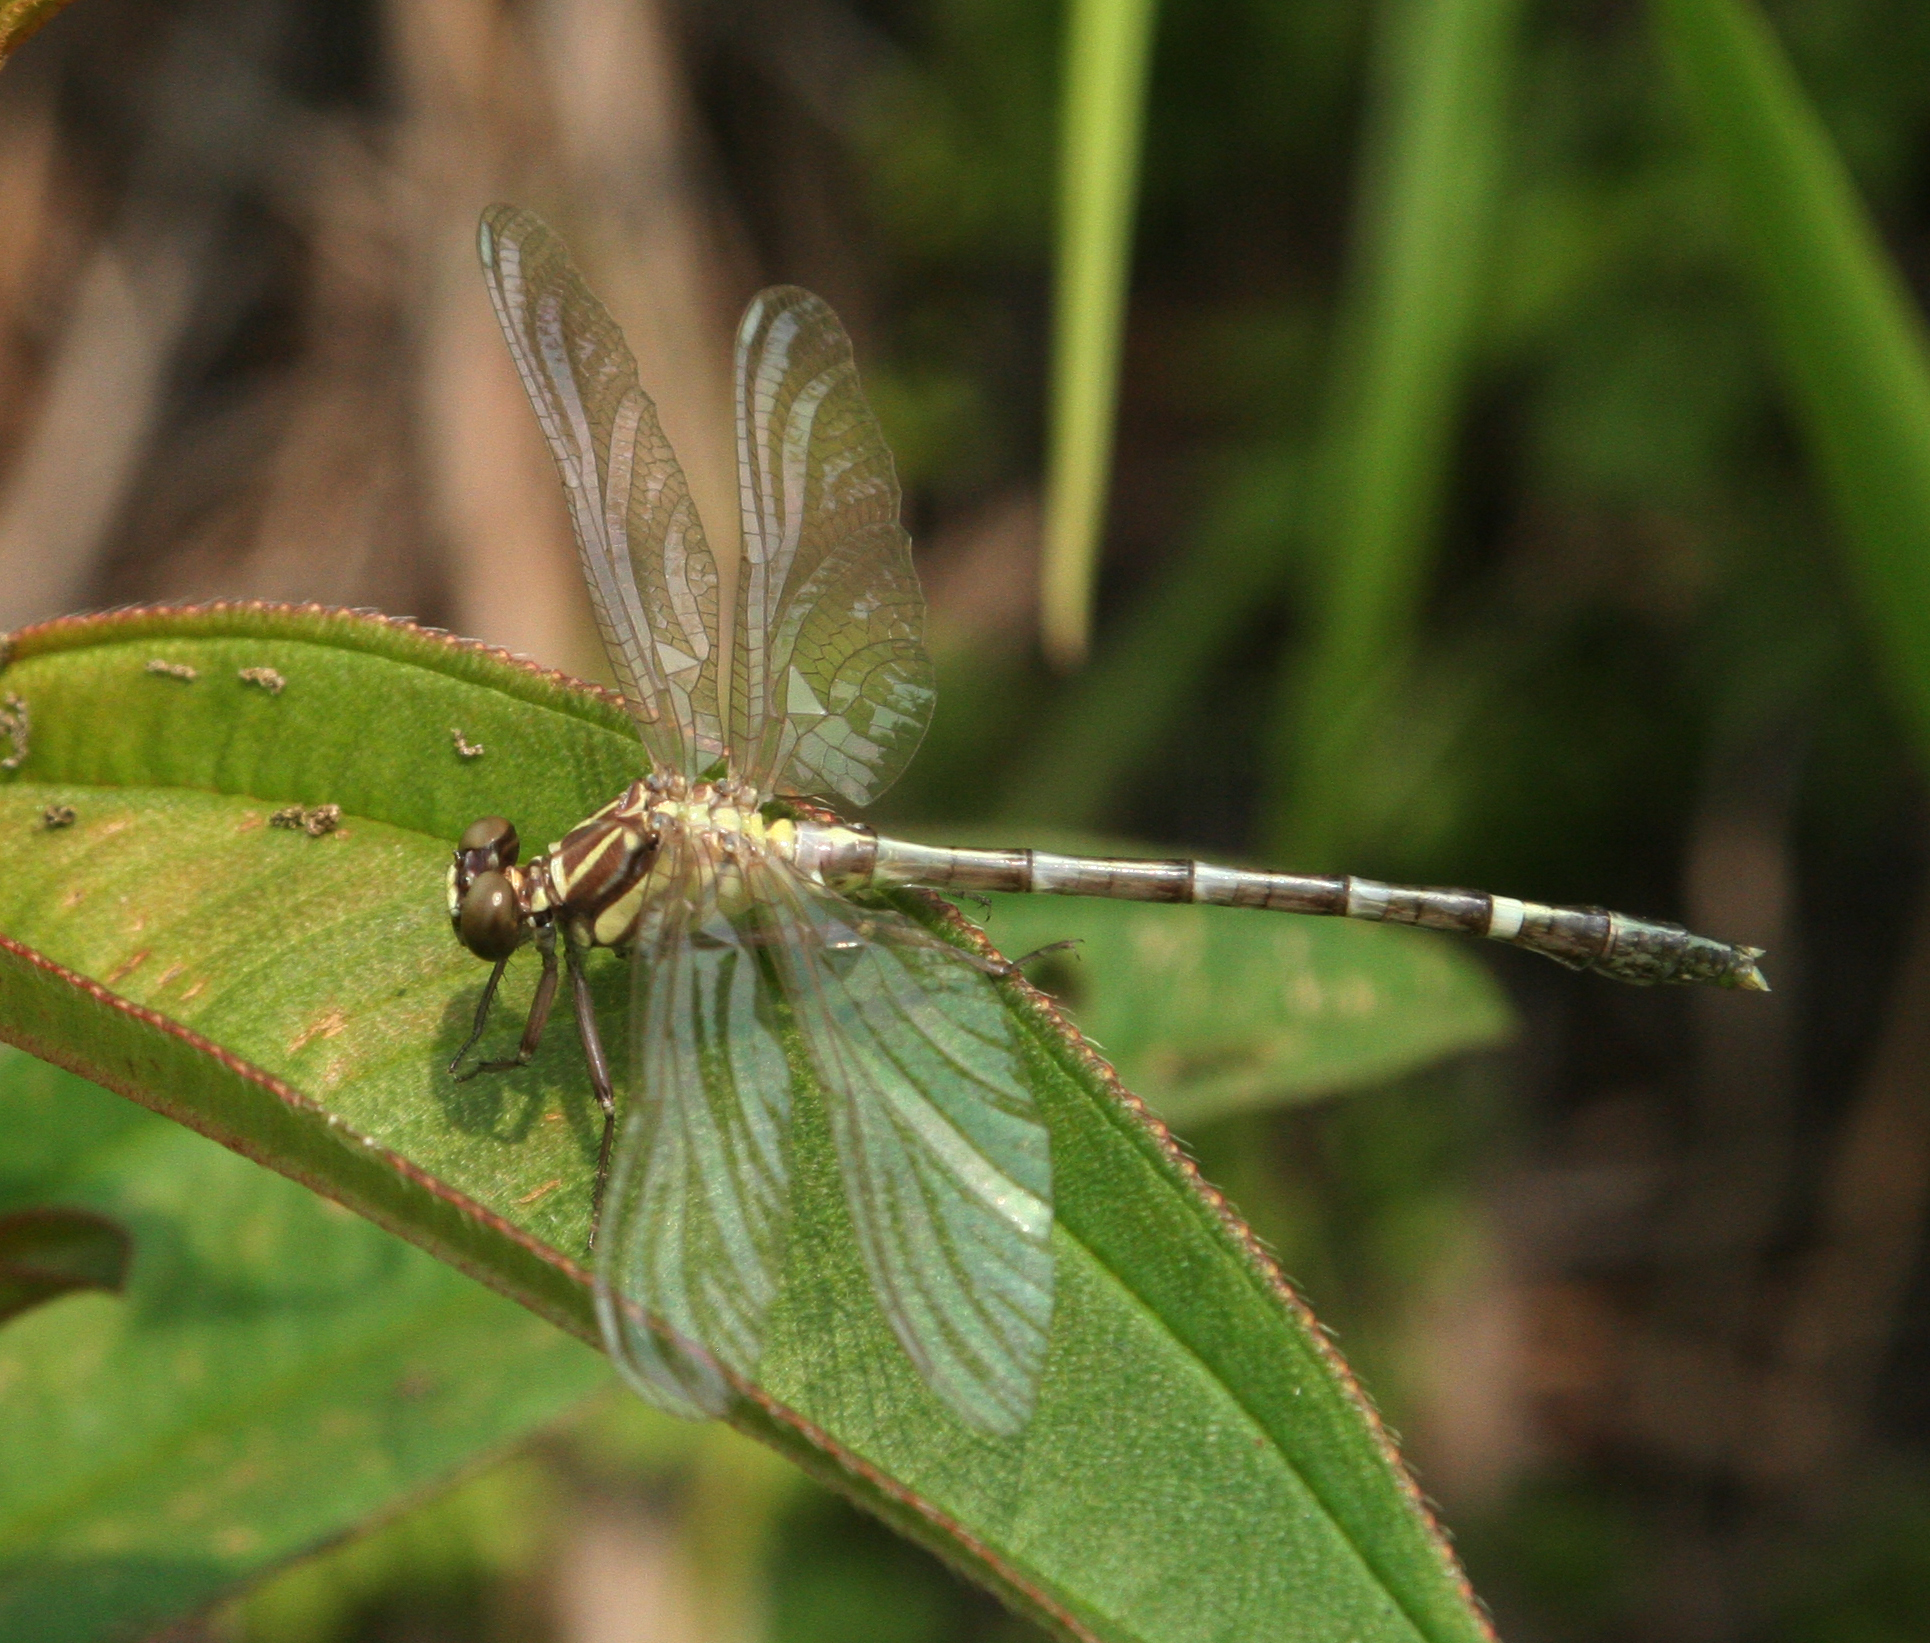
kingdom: Animalia
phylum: Arthropoda
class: Insecta
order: Odonata
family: Gomphidae
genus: Euthygomphus
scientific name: Euthygomphus yunnanensis
